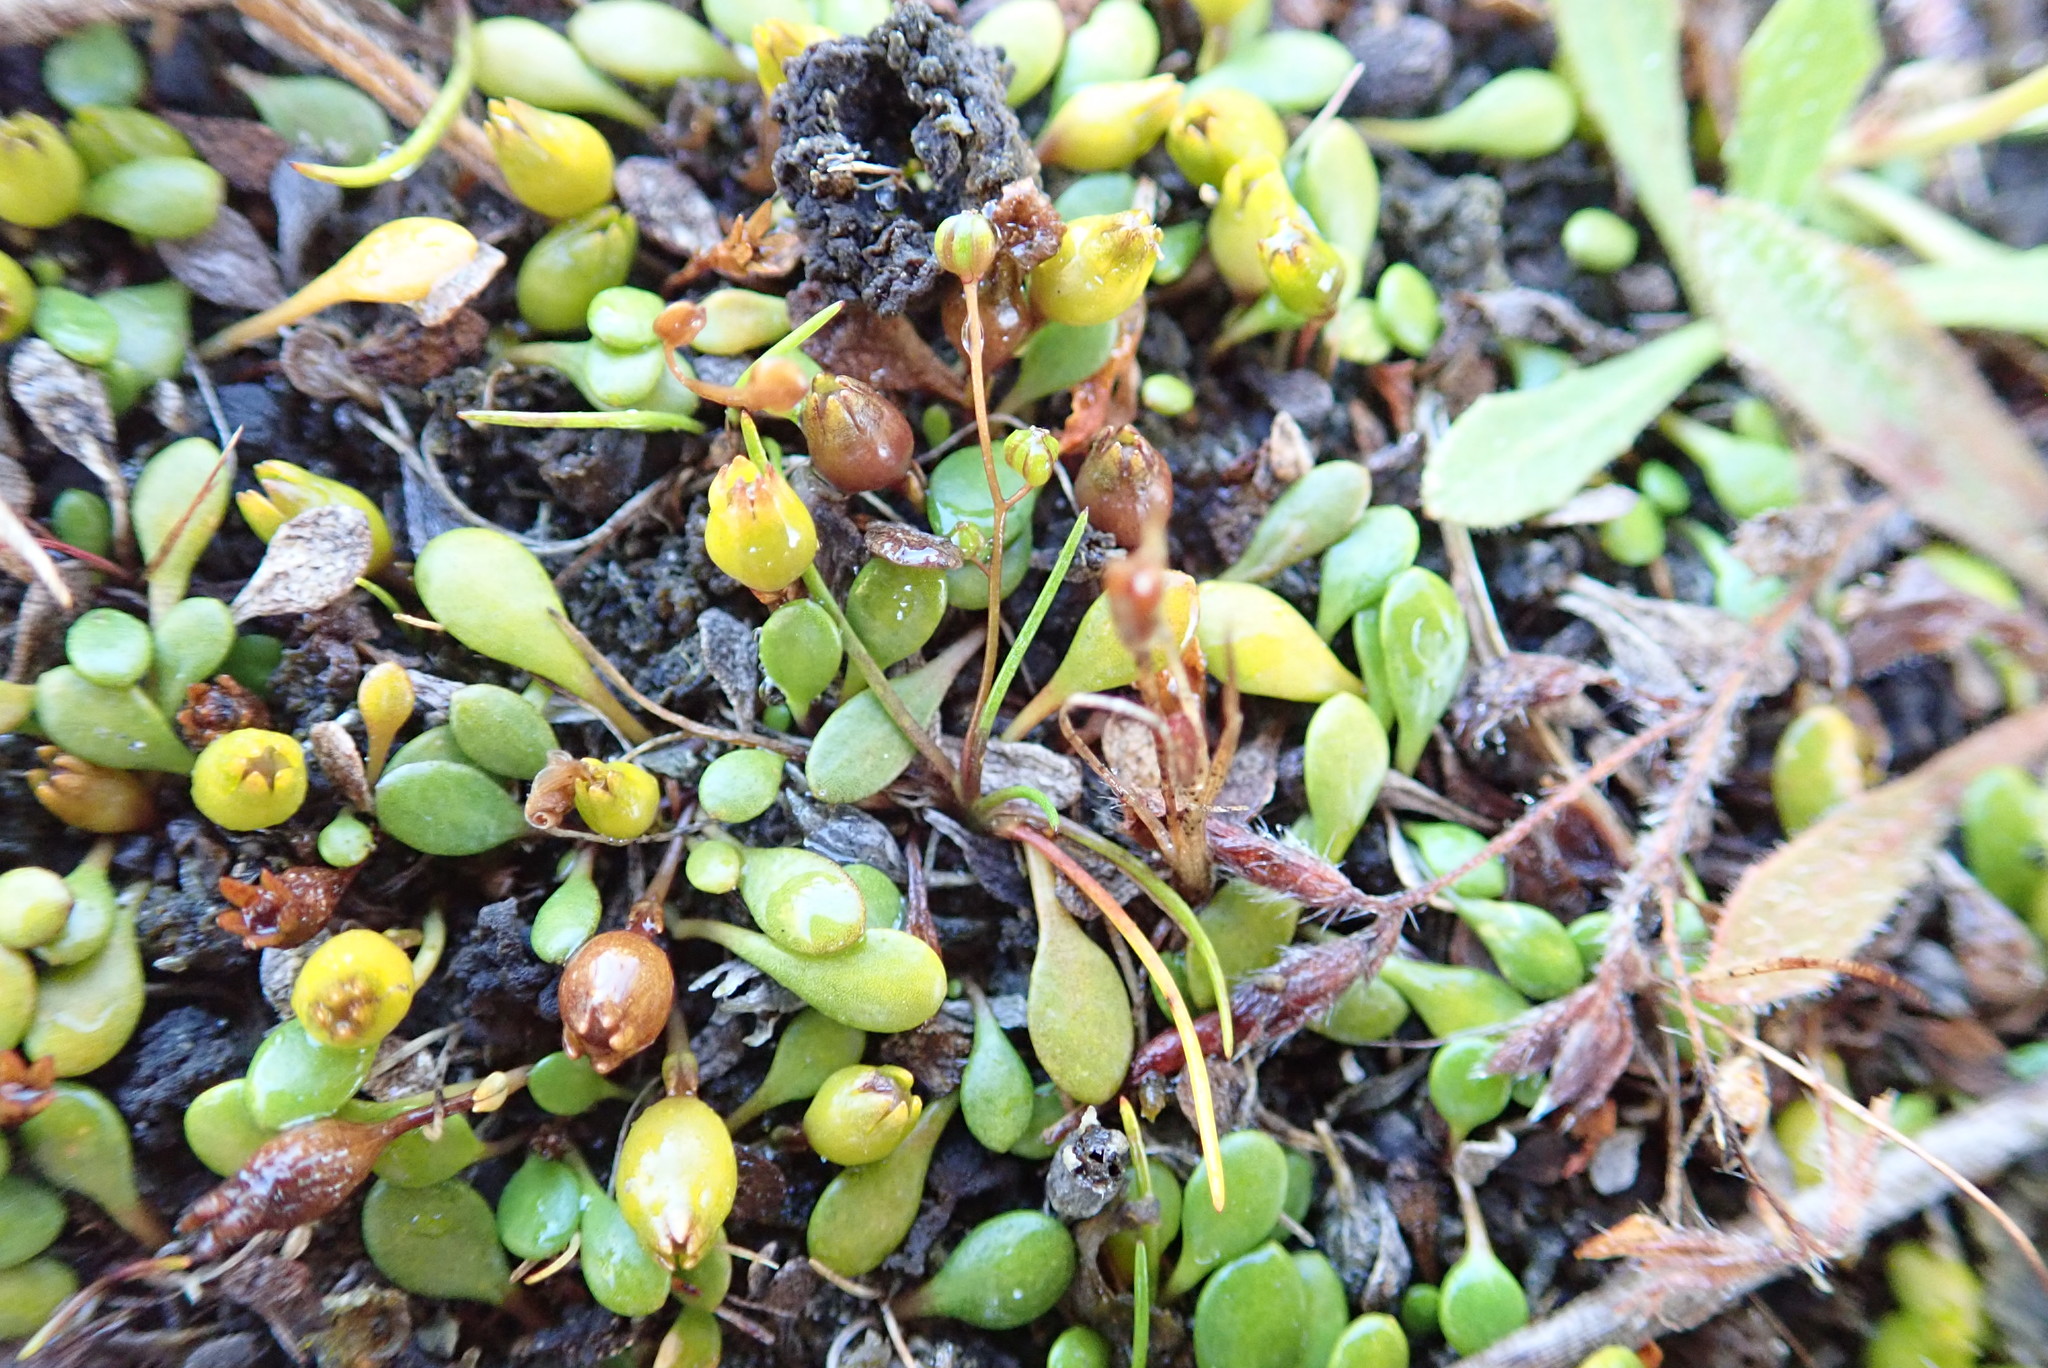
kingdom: Plantae
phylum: Tracheophyta
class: Liliopsida
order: Alismatales
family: Juncaginaceae
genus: Triglochin
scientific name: Triglochin striata
